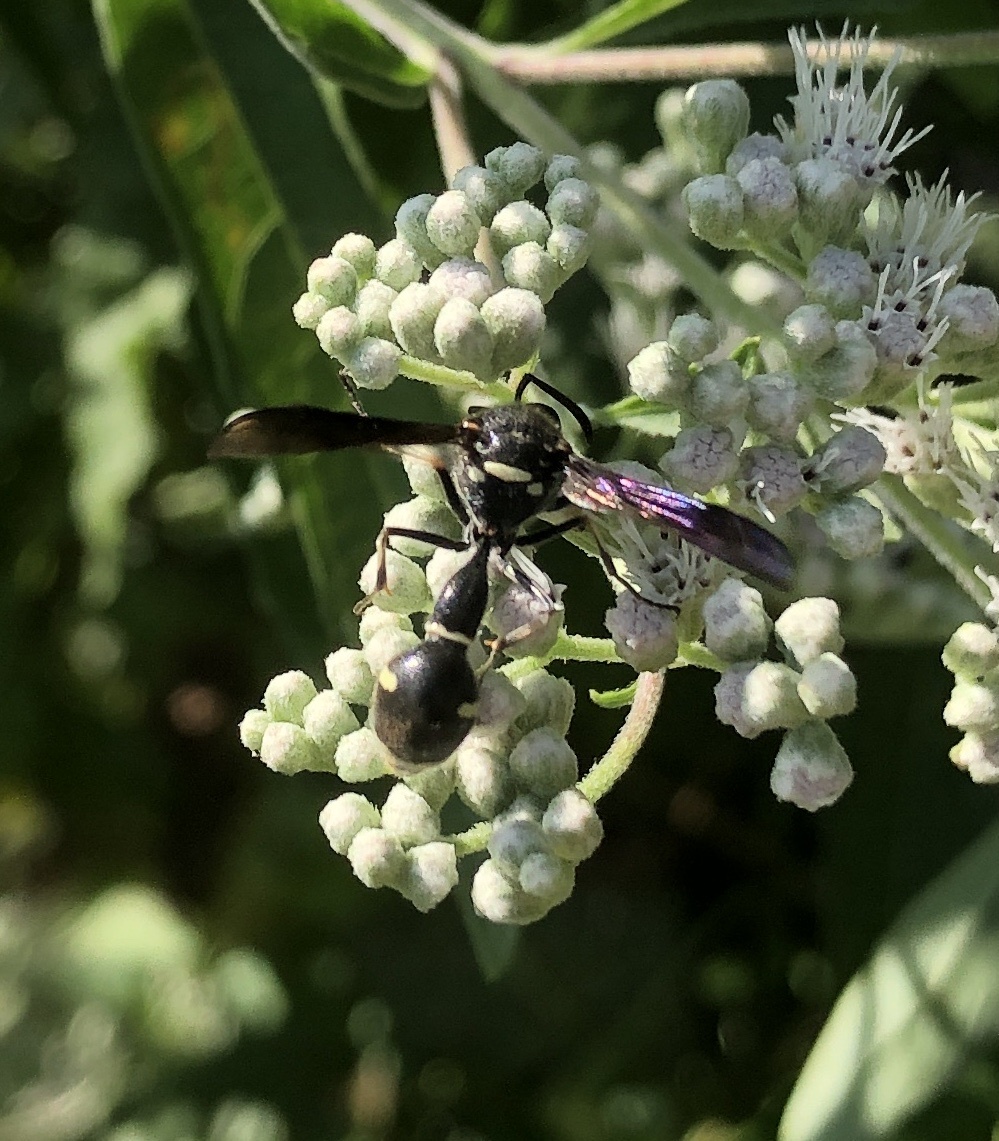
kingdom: Animalia
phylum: Arthropoda
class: Insecta
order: Hymenoptera
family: Vespidae
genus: Eumenes
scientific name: Eumenes fraternus
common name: Fraternal potter wasp
